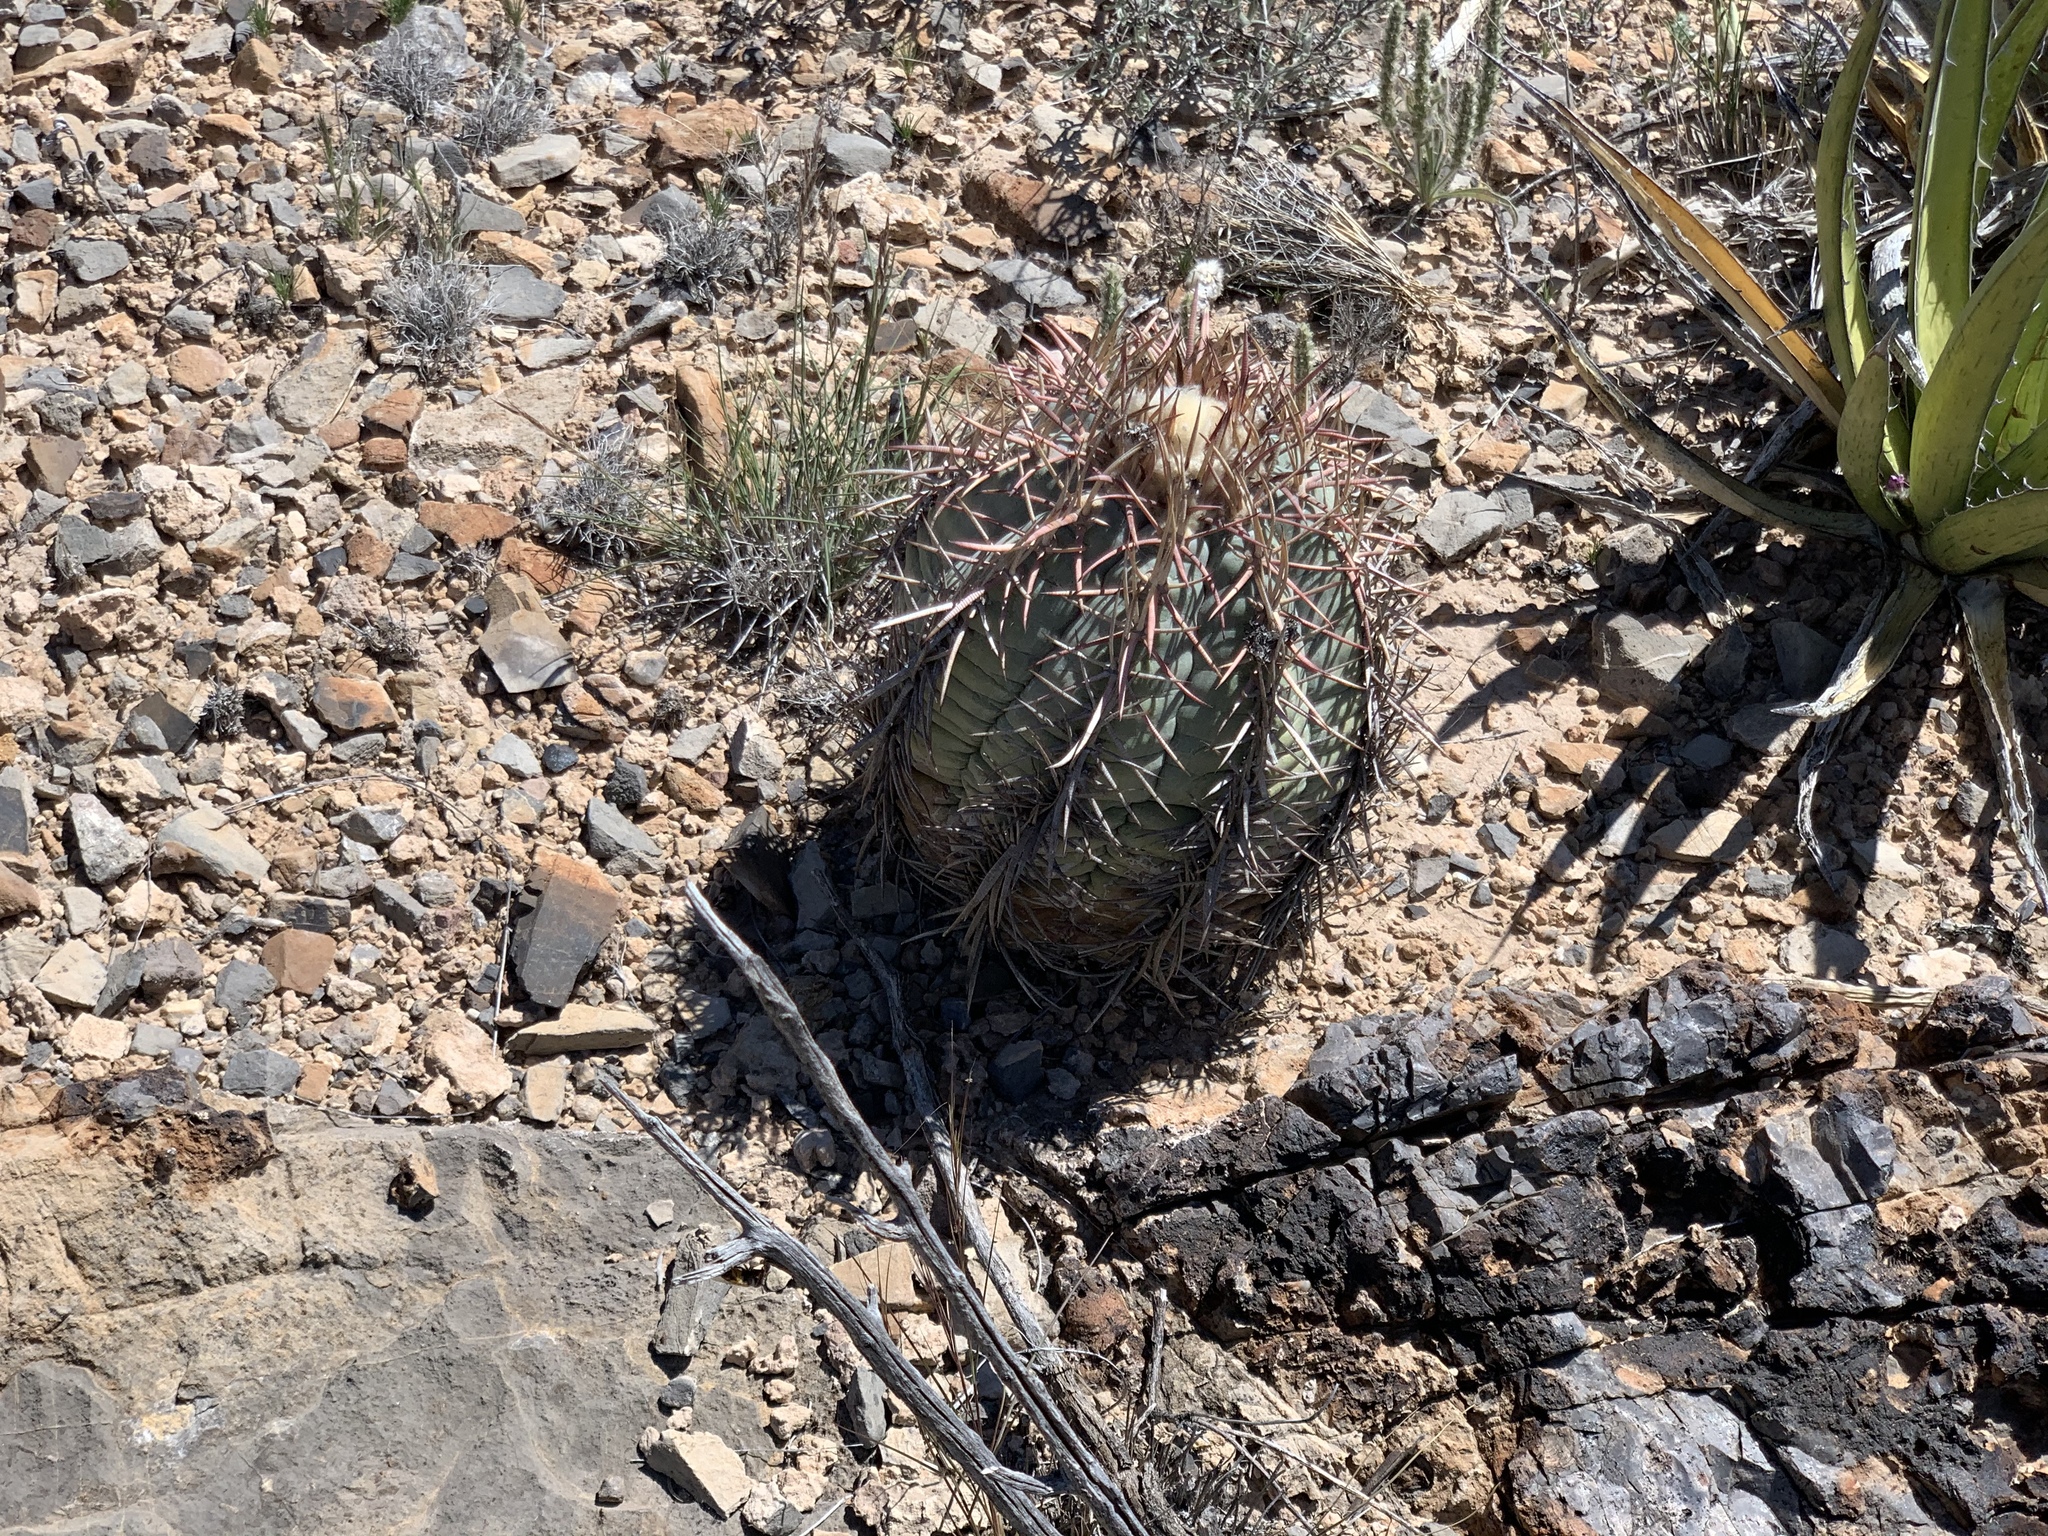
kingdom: Plantae
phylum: Tracheophyta
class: Magnoliopsida
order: Caryophyllales
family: Cactaceae
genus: Echinocactus
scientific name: Echinocactus horizonthalonius
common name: Devilshead
